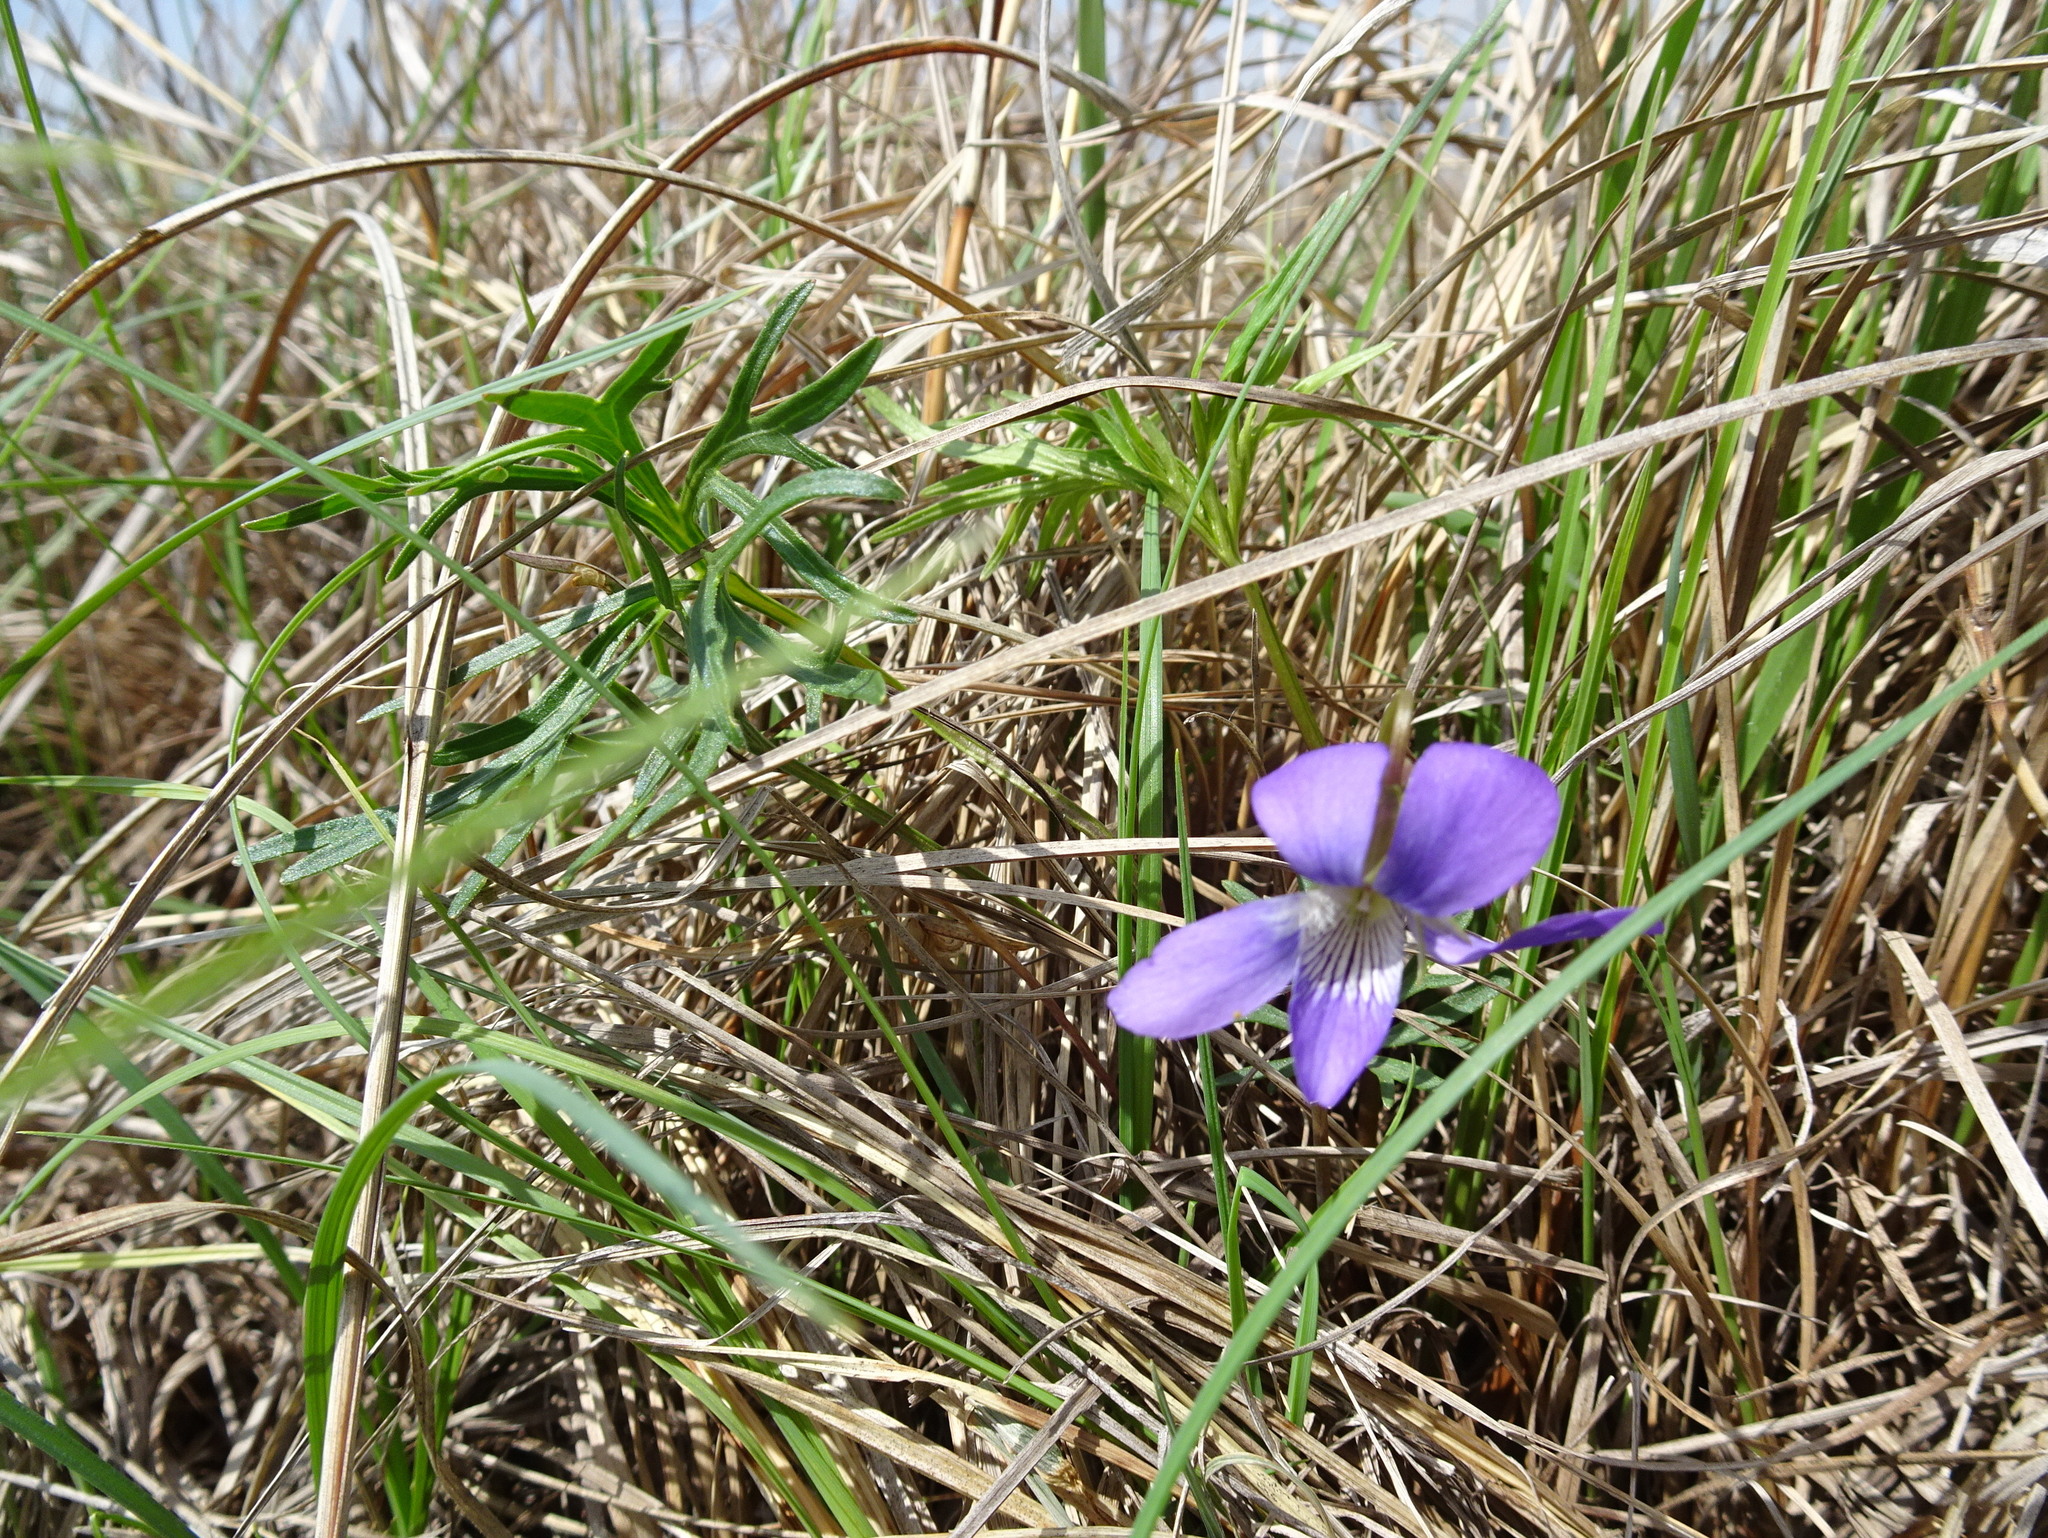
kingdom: Plantae
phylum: Tracheophyta
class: Magnoliopsida
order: Malpighiales
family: Violaceae
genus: Viola
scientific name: Viola pedatifida
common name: Prairie violet
